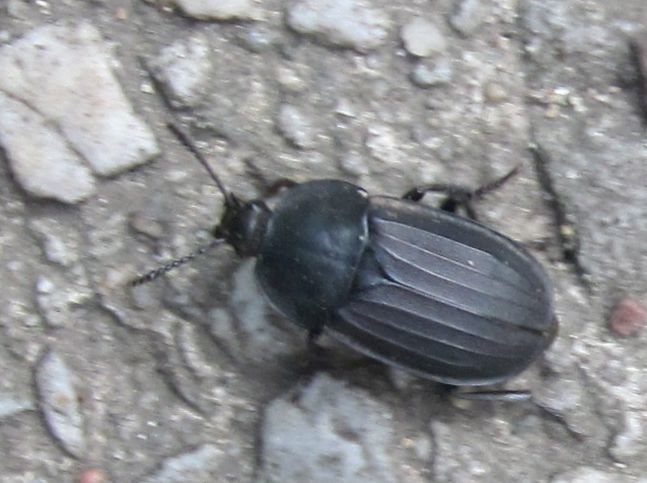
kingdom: Animalia
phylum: Arthropoda
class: Insecta
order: Coleoptera
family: Staphylinidae
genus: Silpha
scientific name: Silpha tristis
